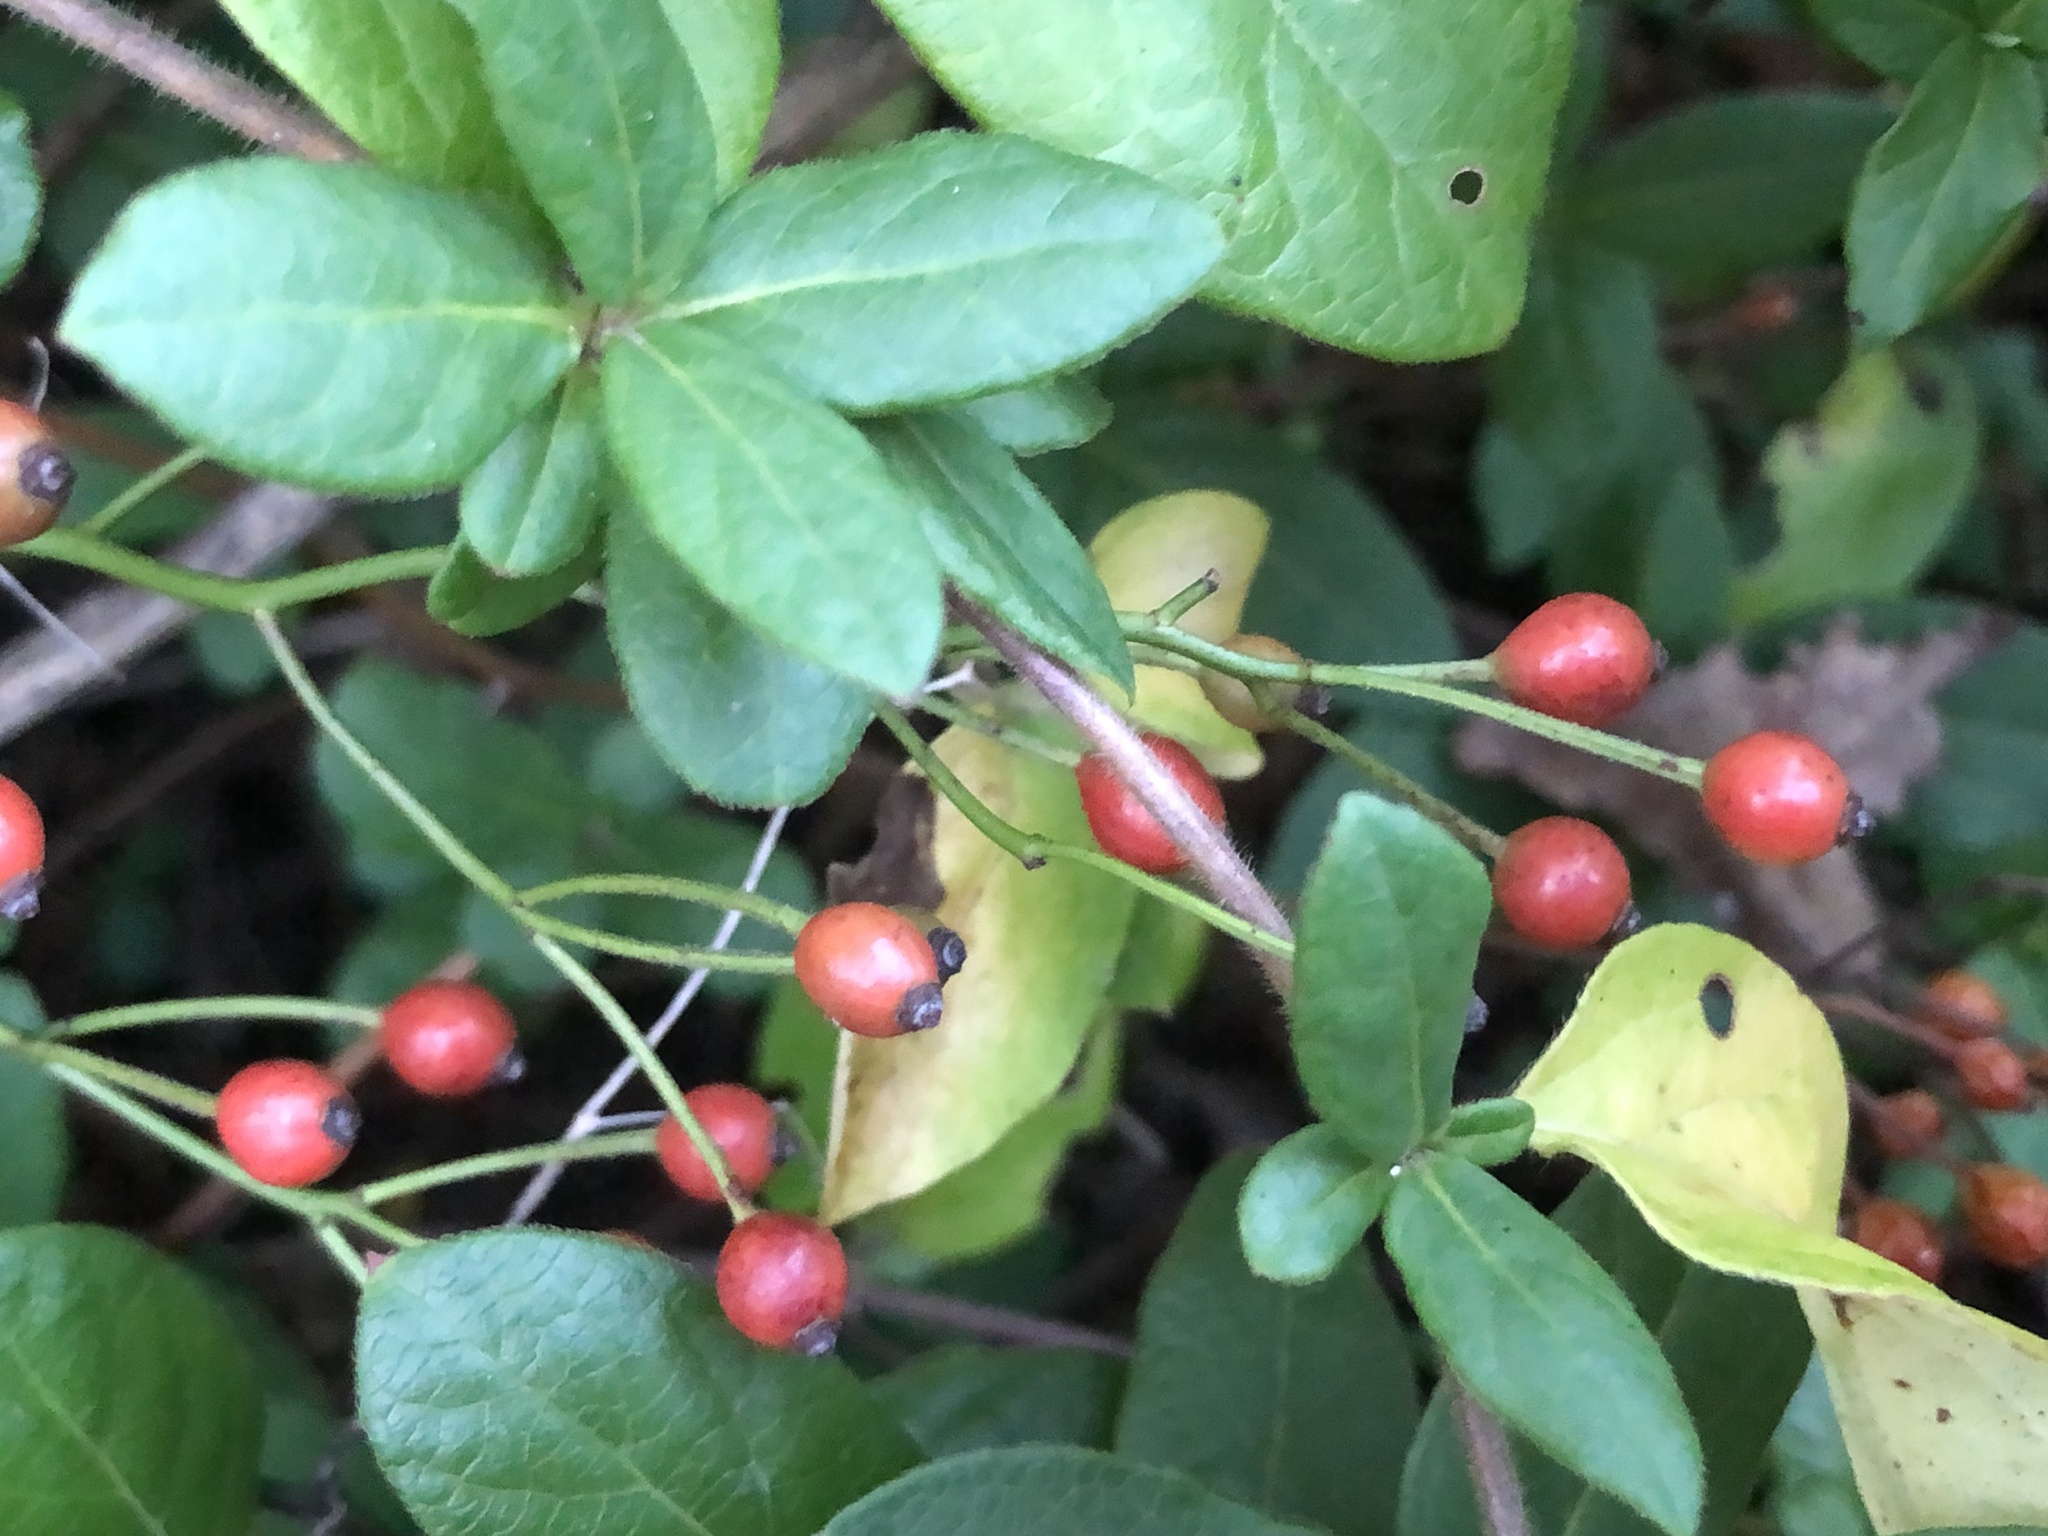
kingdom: Plantae
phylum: Tracheophyta
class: Magnoliopsida
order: Rosales
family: Rosaceae
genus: Rosa
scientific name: Rosa multiflora
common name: Multiflora rose
